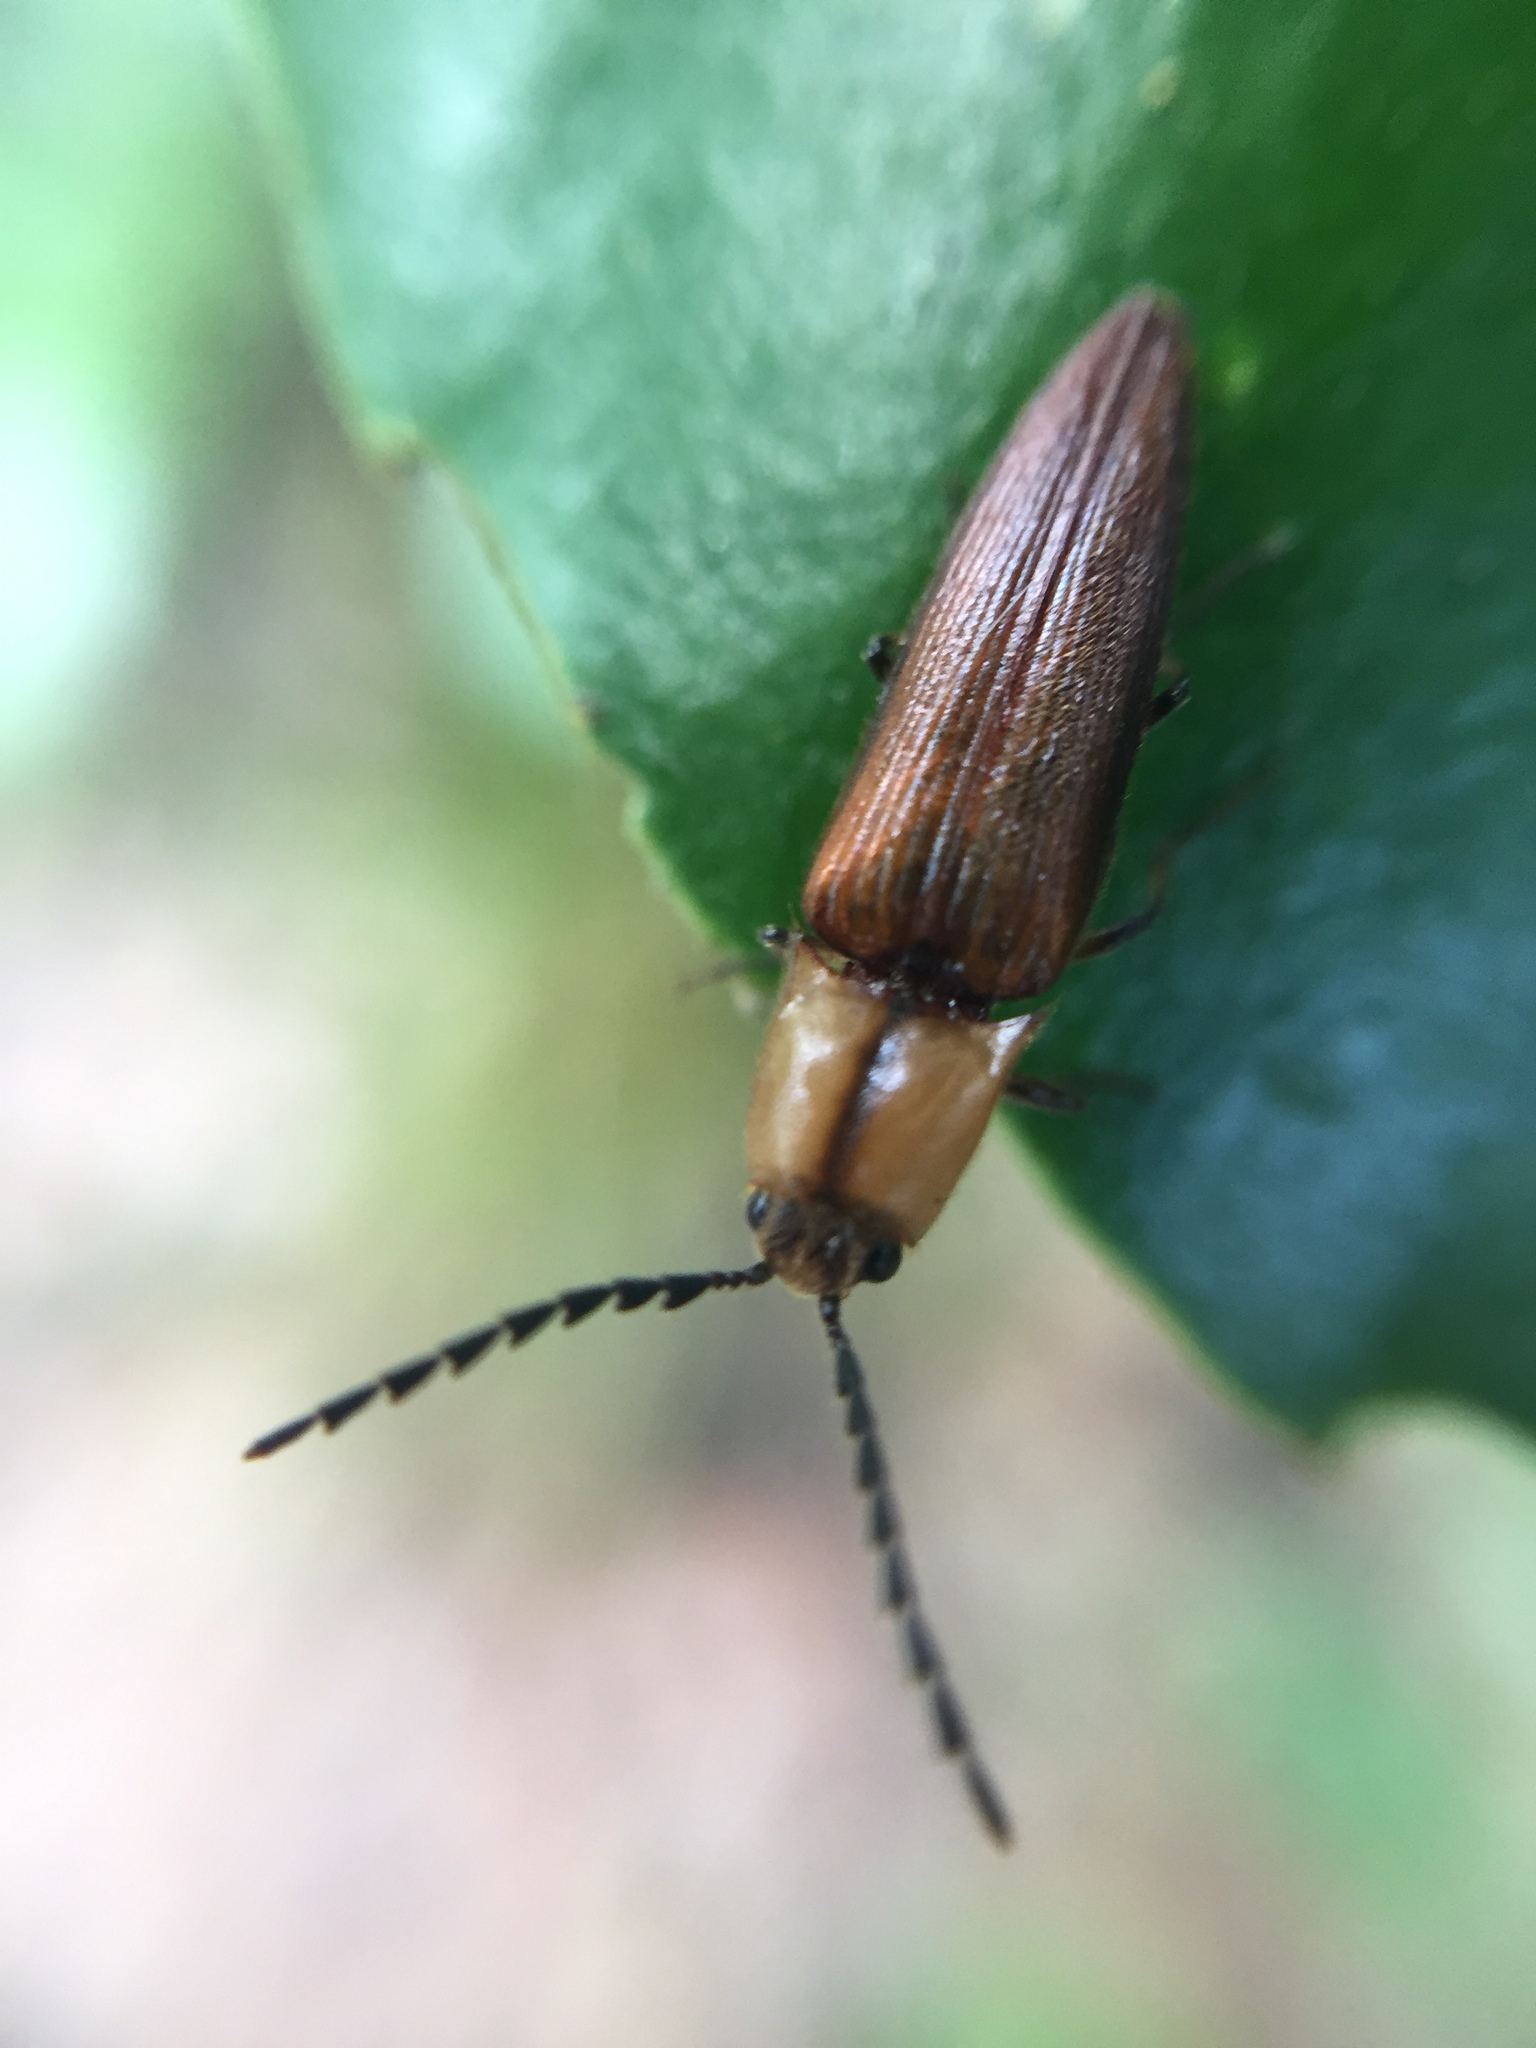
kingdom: Animalia
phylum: Arthropoda
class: Insecta
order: Coleoptera
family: Elateridae
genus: Sphaenelater
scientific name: Sphaenelater
